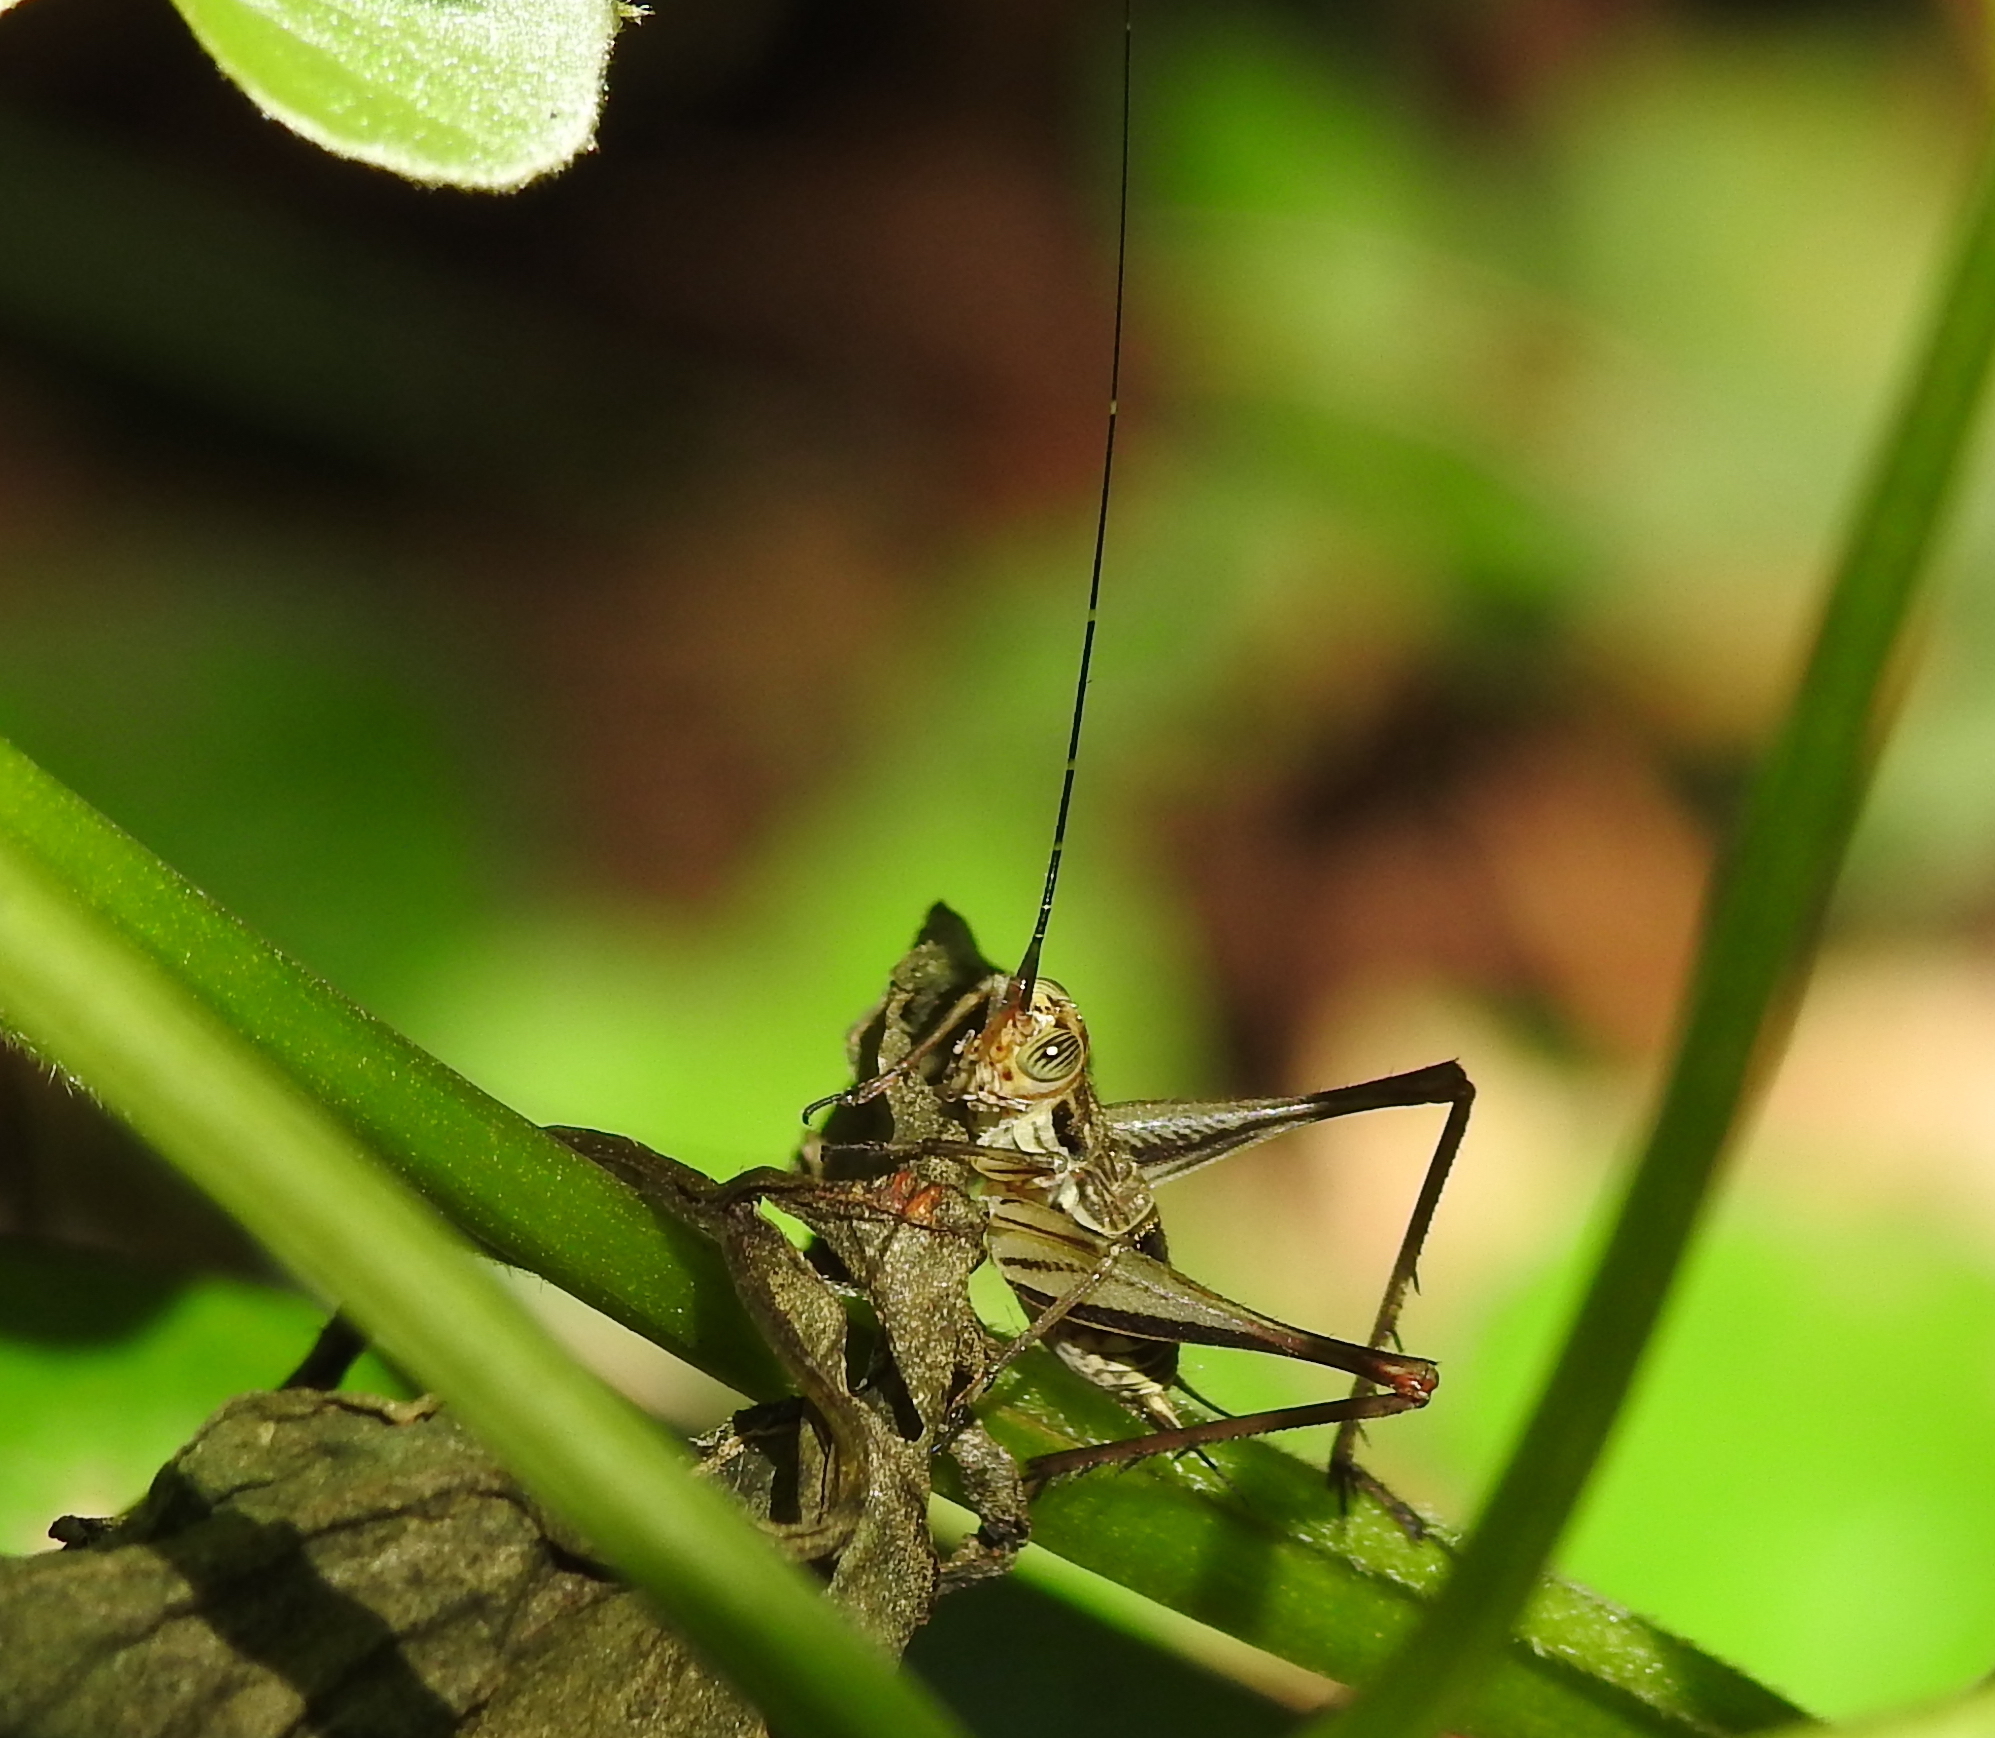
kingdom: Animalia
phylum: Arthropoda
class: Insecta
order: Orthoptera
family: Gryllidae
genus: Nisitrus
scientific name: Nisitrus malaya
